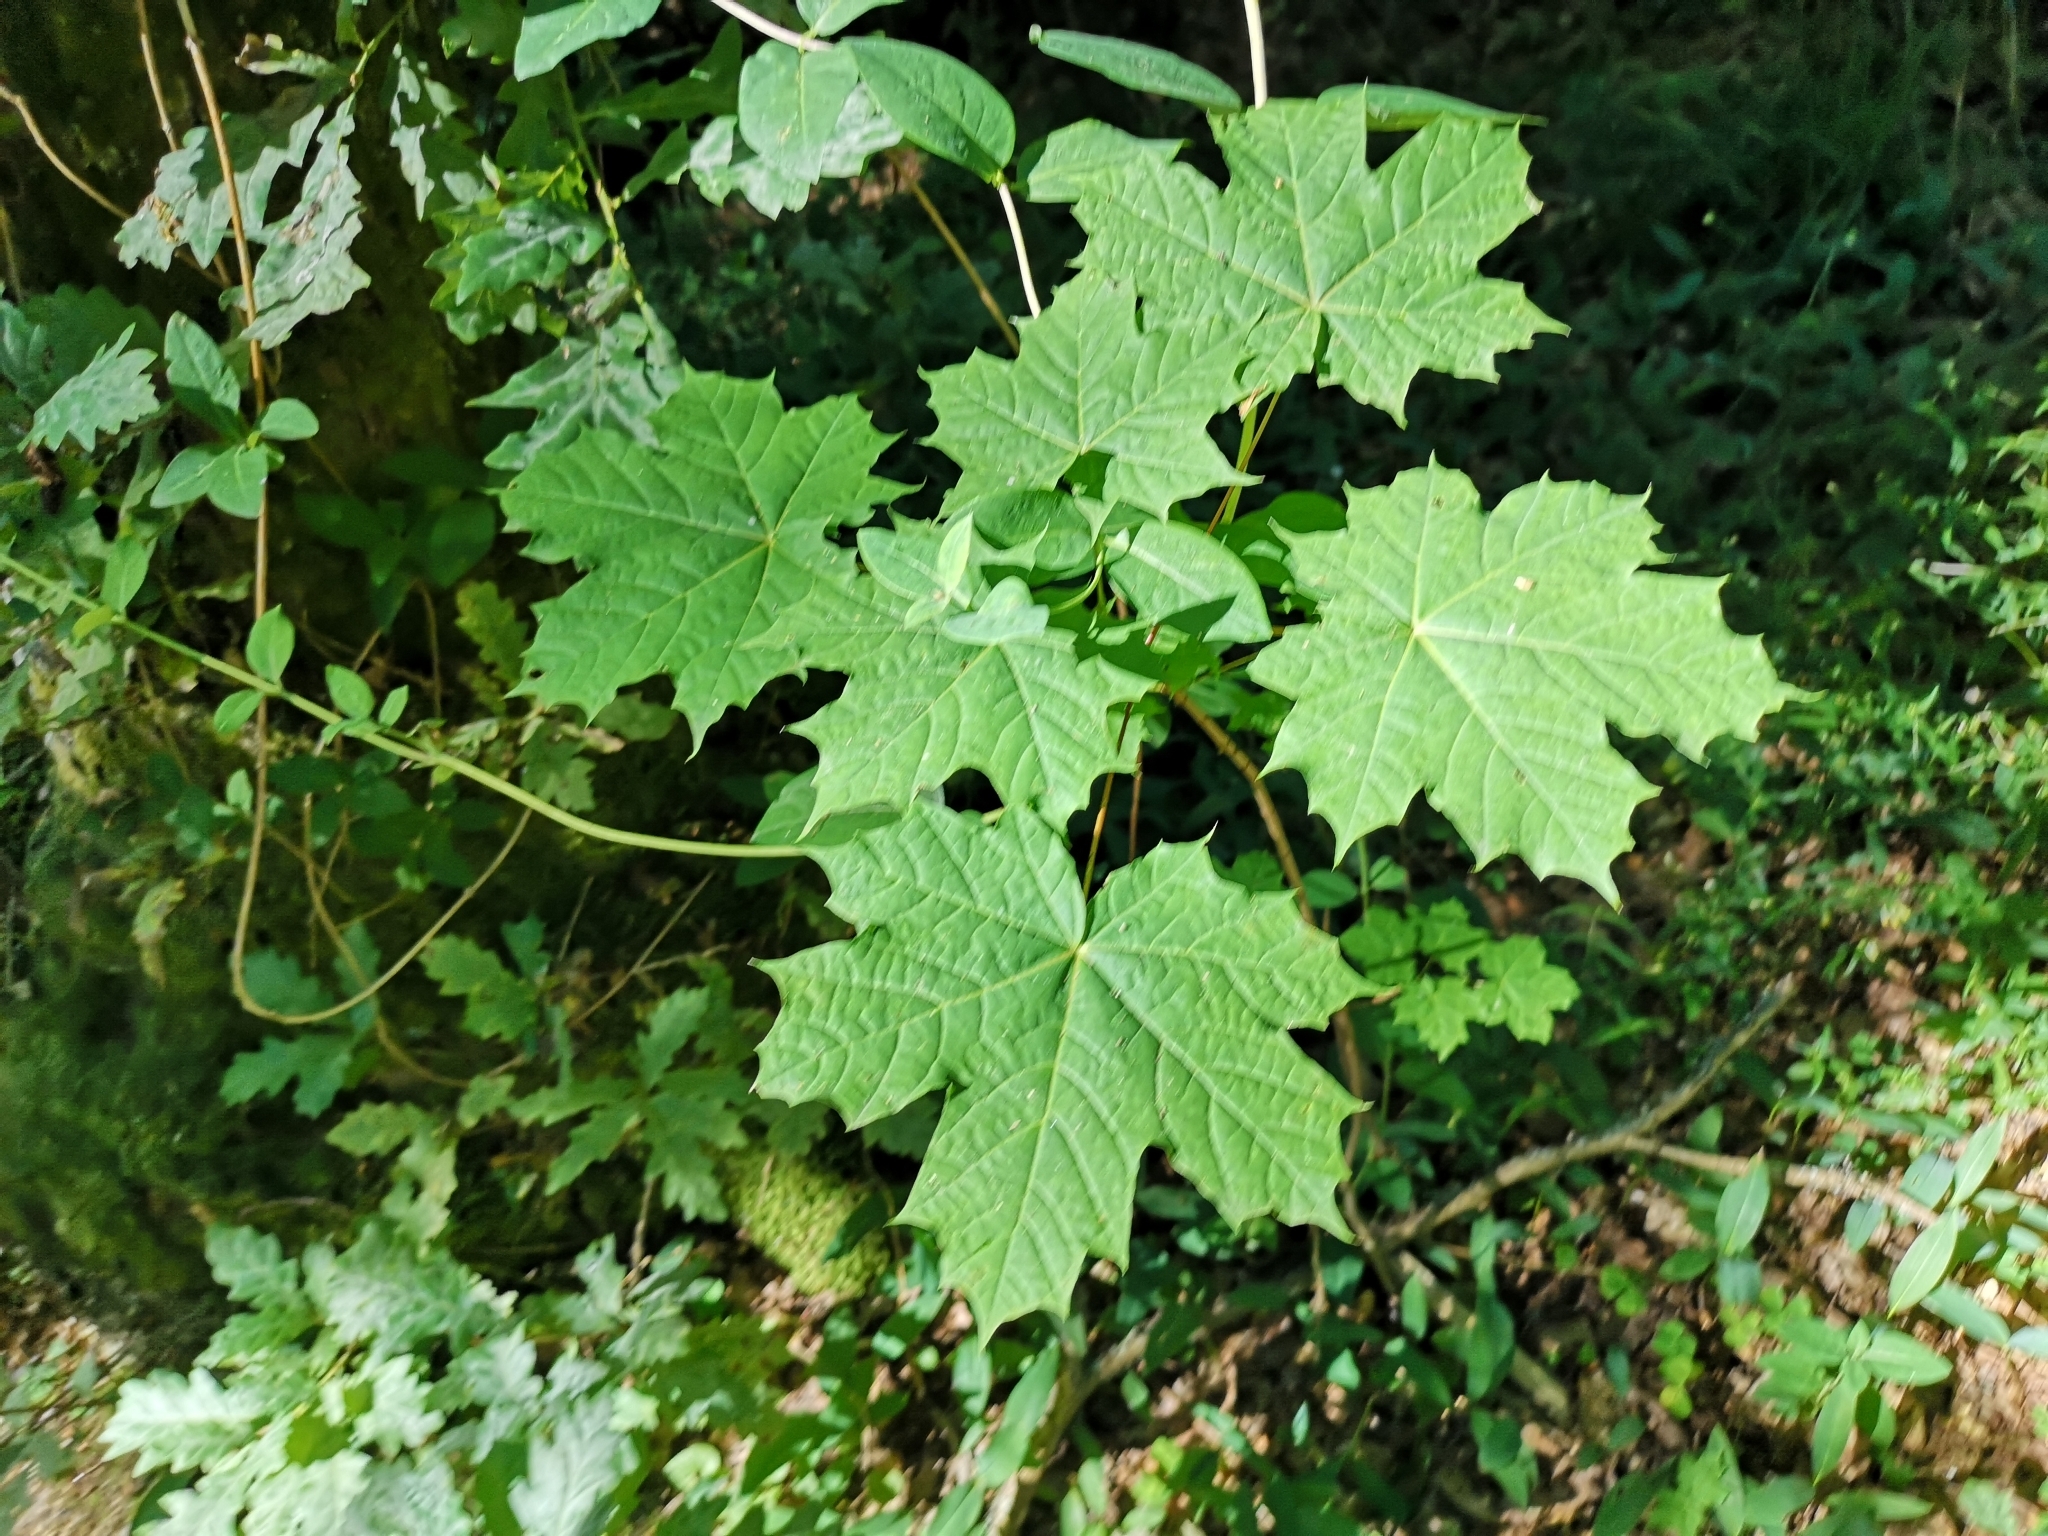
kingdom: Plantae
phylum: Tracheophyta
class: Magnoliopsida
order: Sapindales
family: Sapindaceae
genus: Acer
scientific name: Acer platanoides
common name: Norway maple
